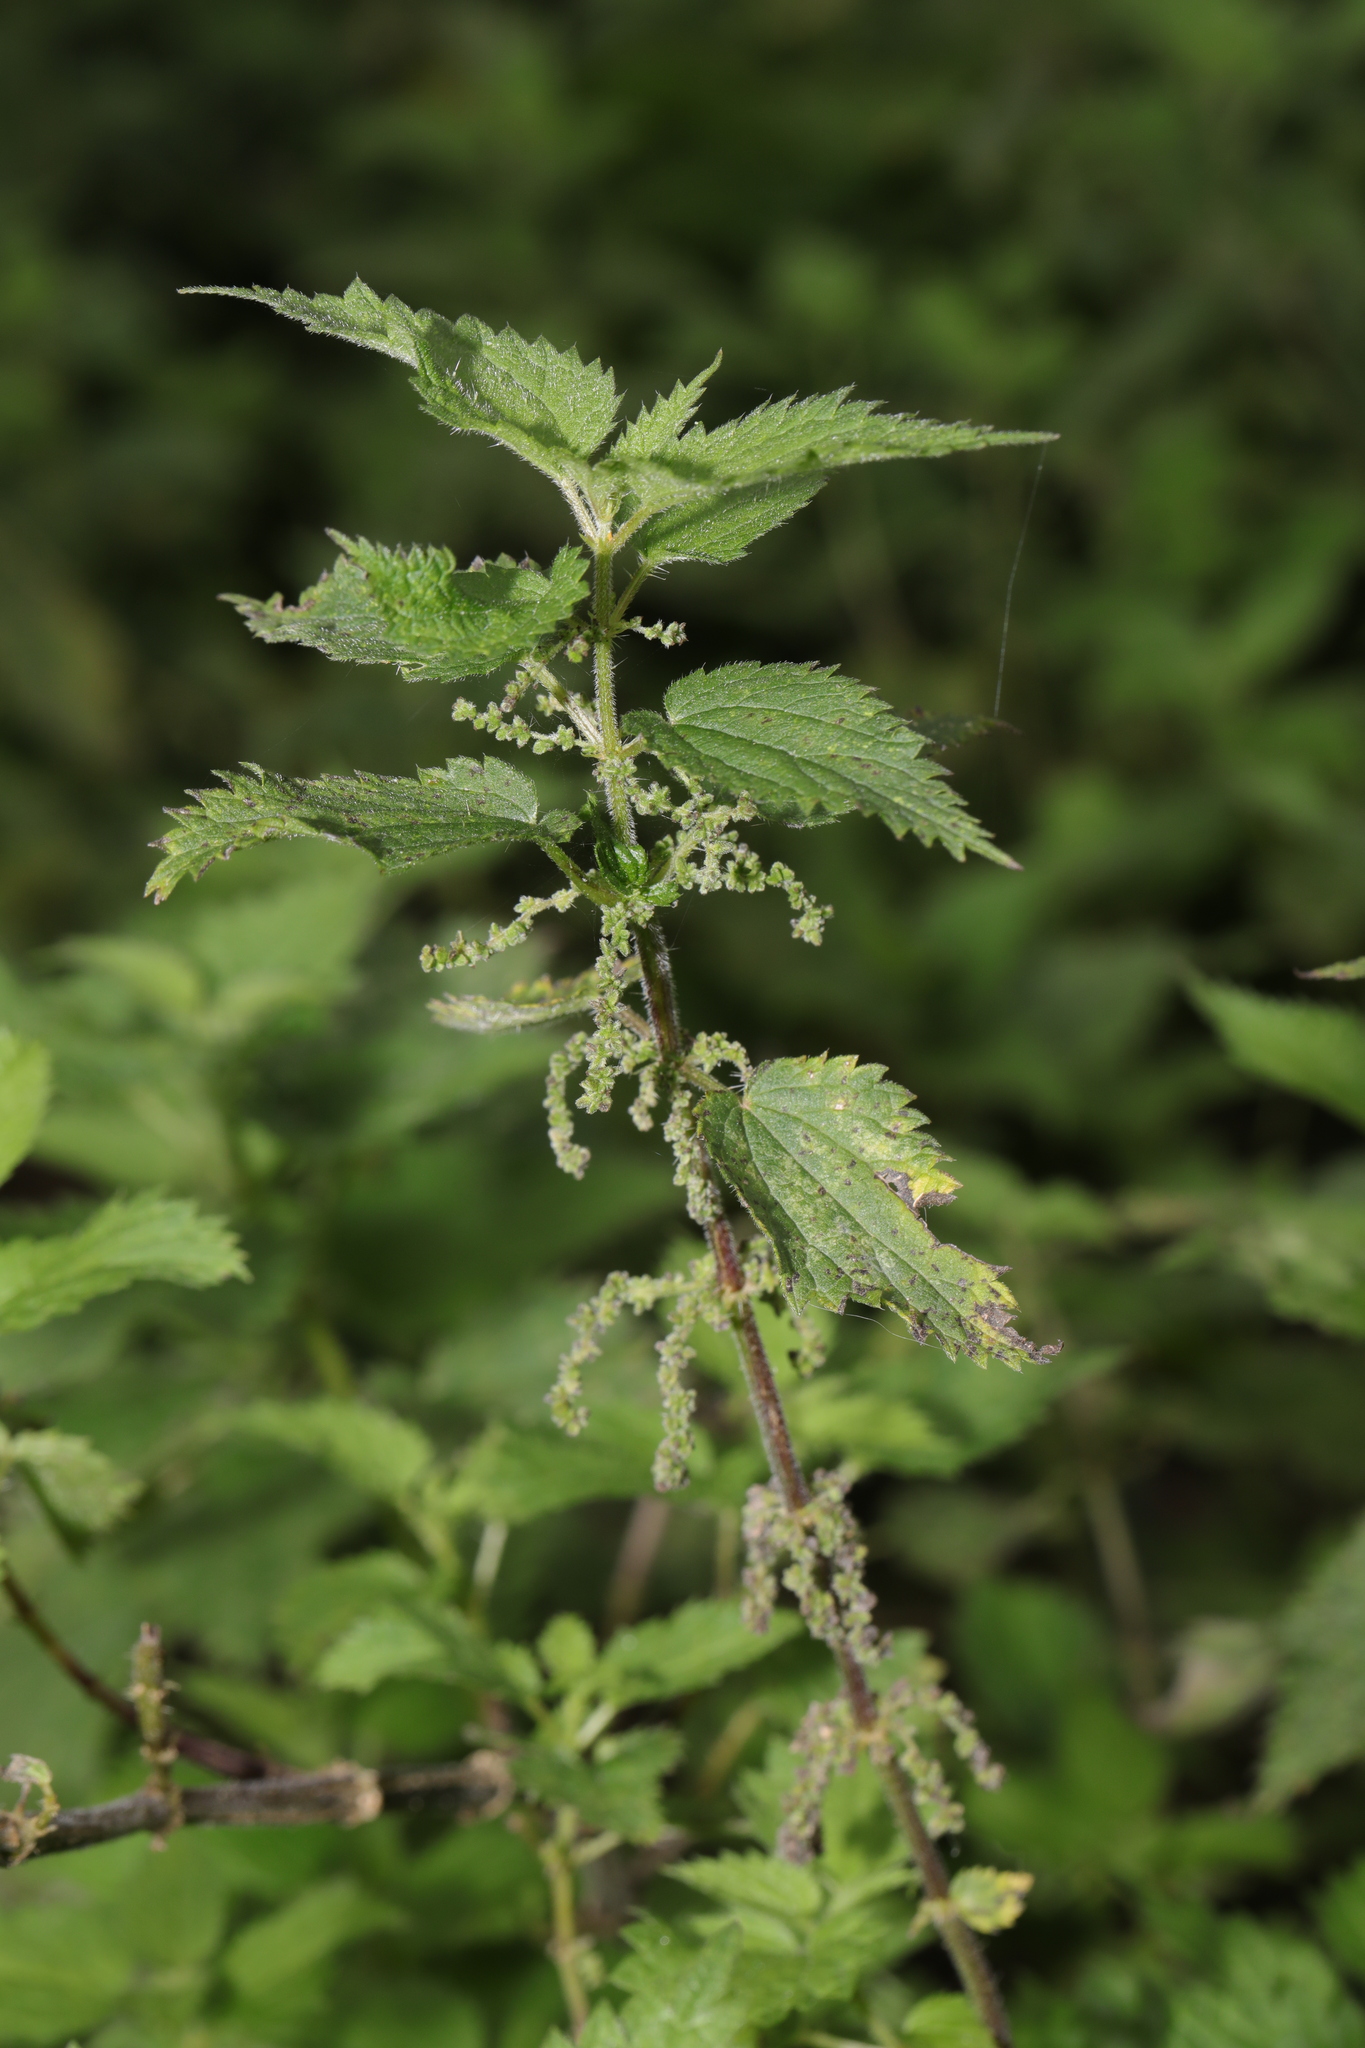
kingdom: Plantae
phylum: Tracheophyta
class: Magnoliopsida
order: Rosales
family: Urticaceae
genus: Urtica
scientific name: Urtica dioica
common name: Common nettle
